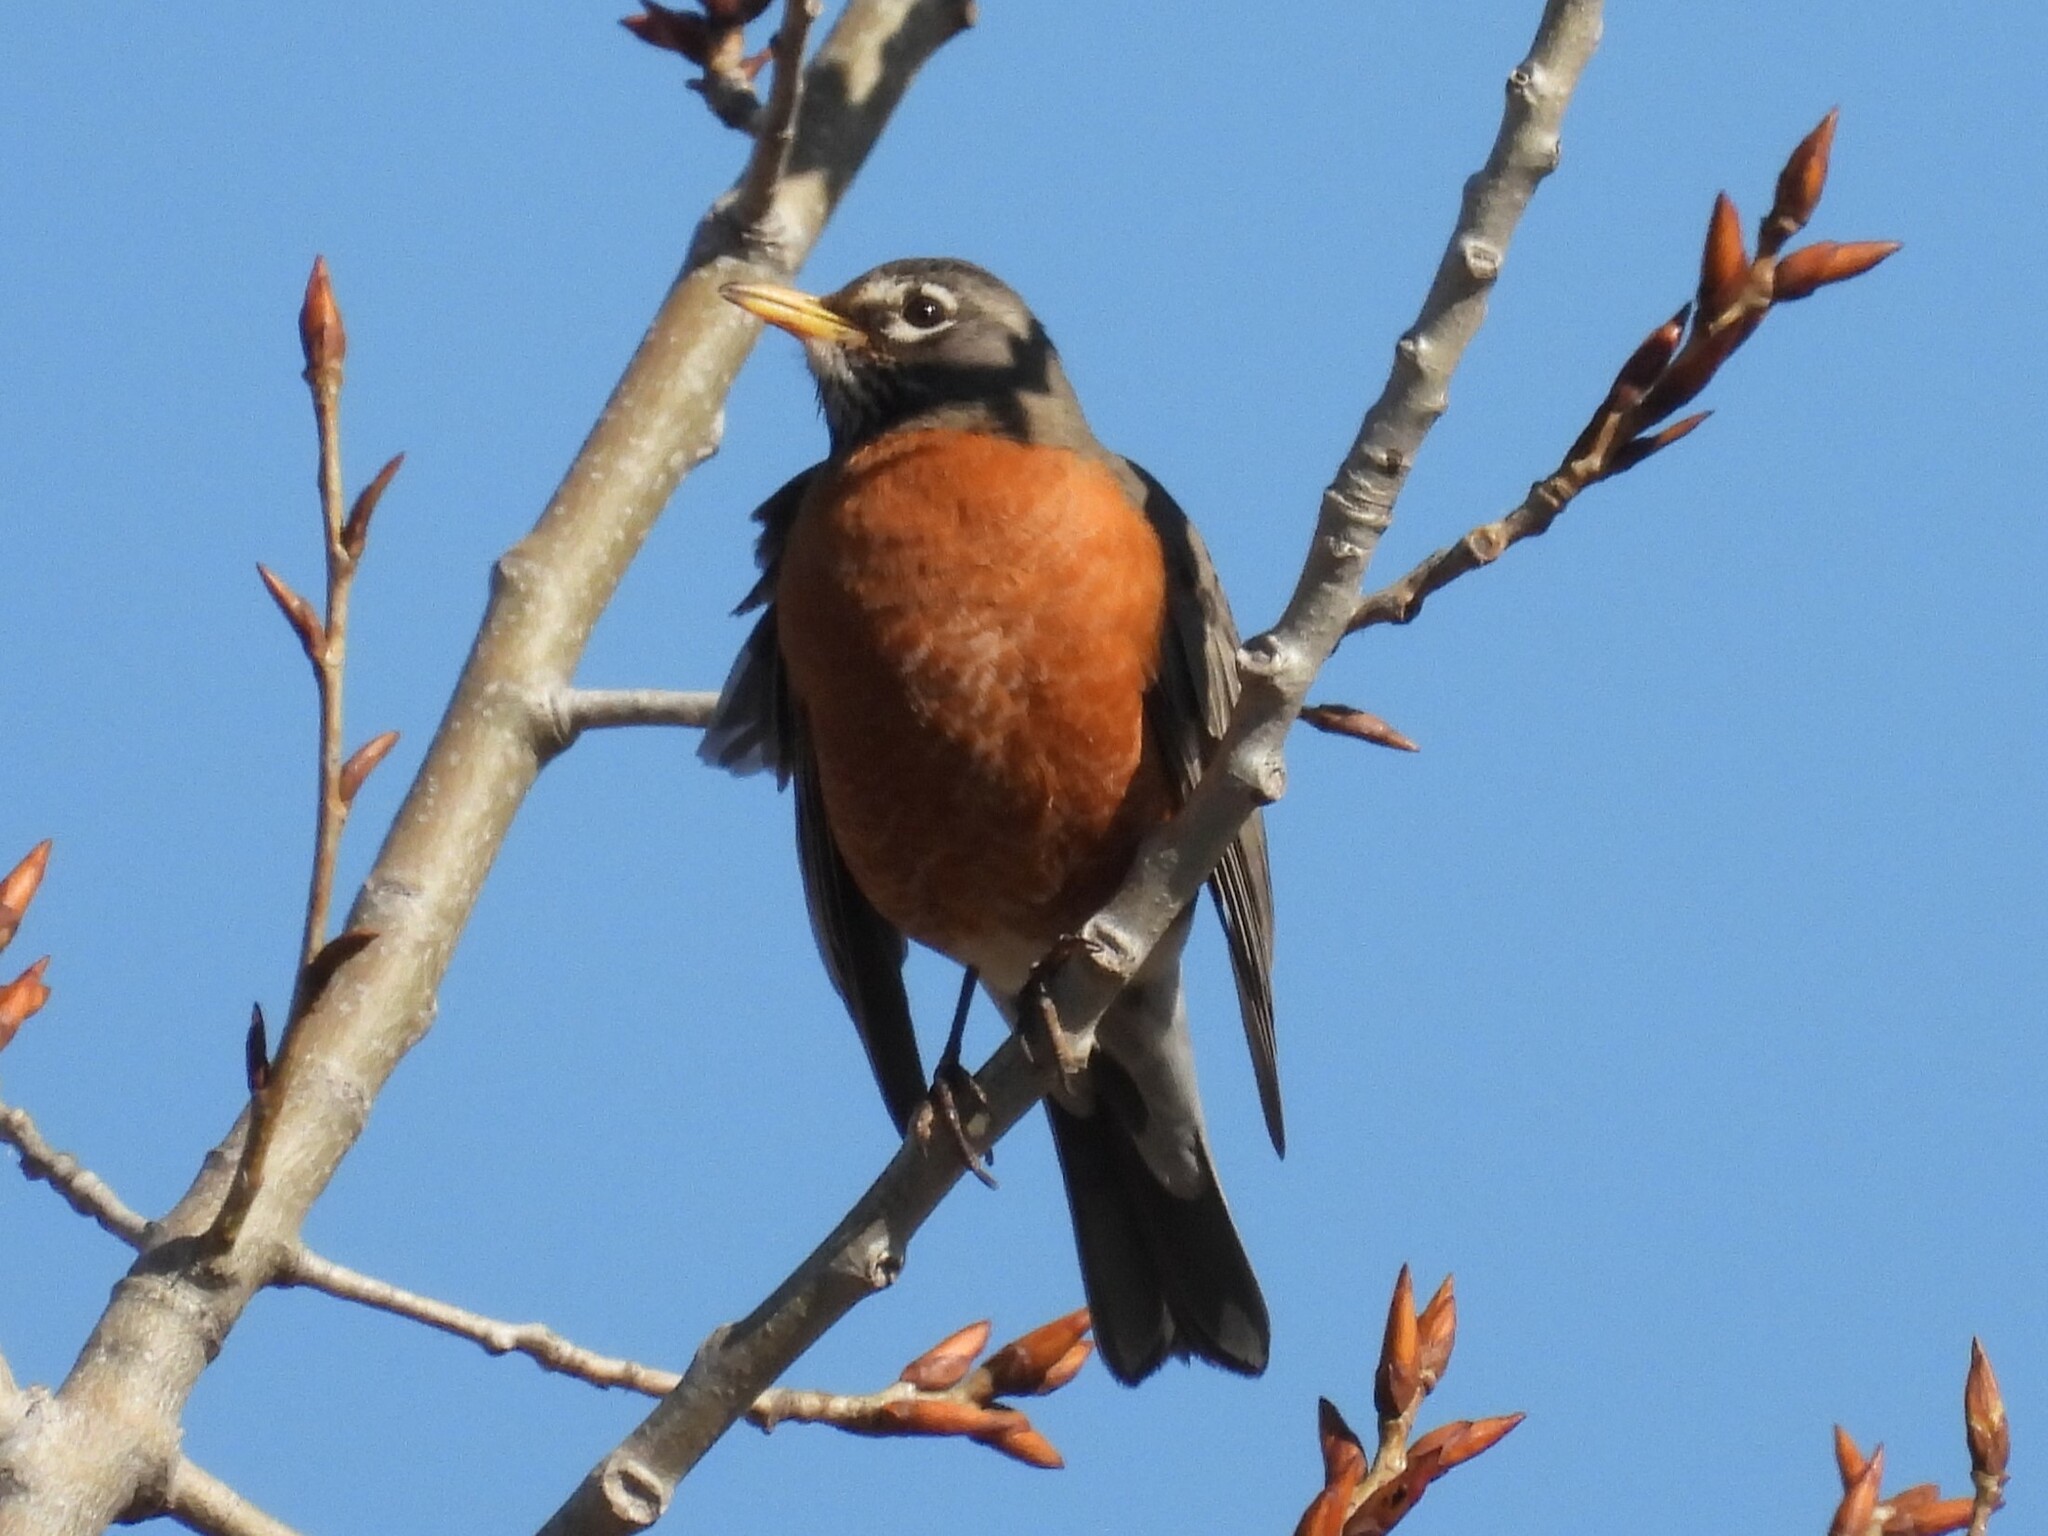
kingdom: Animalia
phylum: Chordata
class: Aves
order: Passeriformes
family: Turdidae
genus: Turdus
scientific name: Turdus migratorius
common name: American robin
